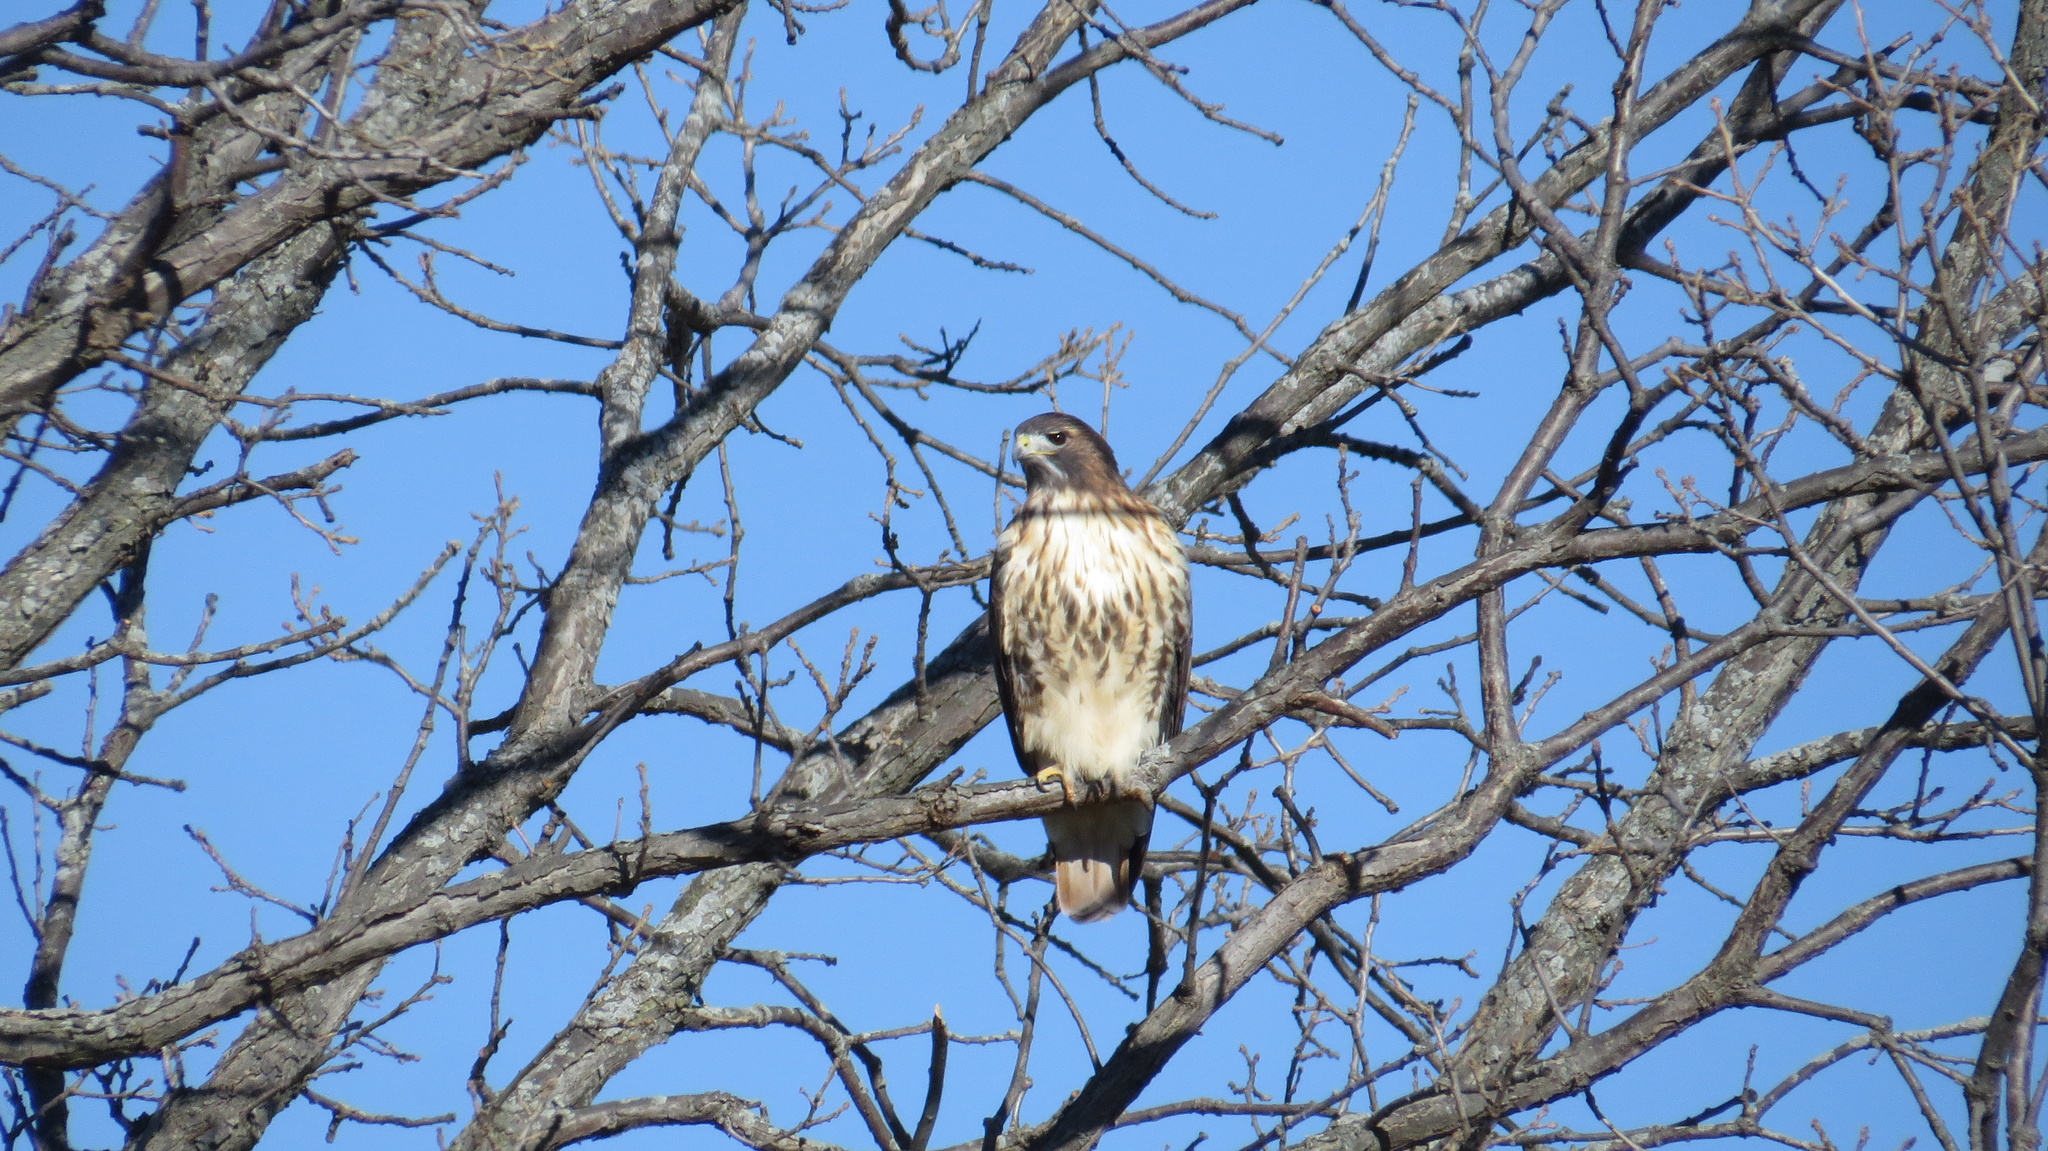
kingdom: Animalia
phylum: Chordata
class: Aves
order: Accipitriformes
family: Accipitridae
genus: Buteo
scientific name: Buteo jamaicensis
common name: Red-tailed hawk
